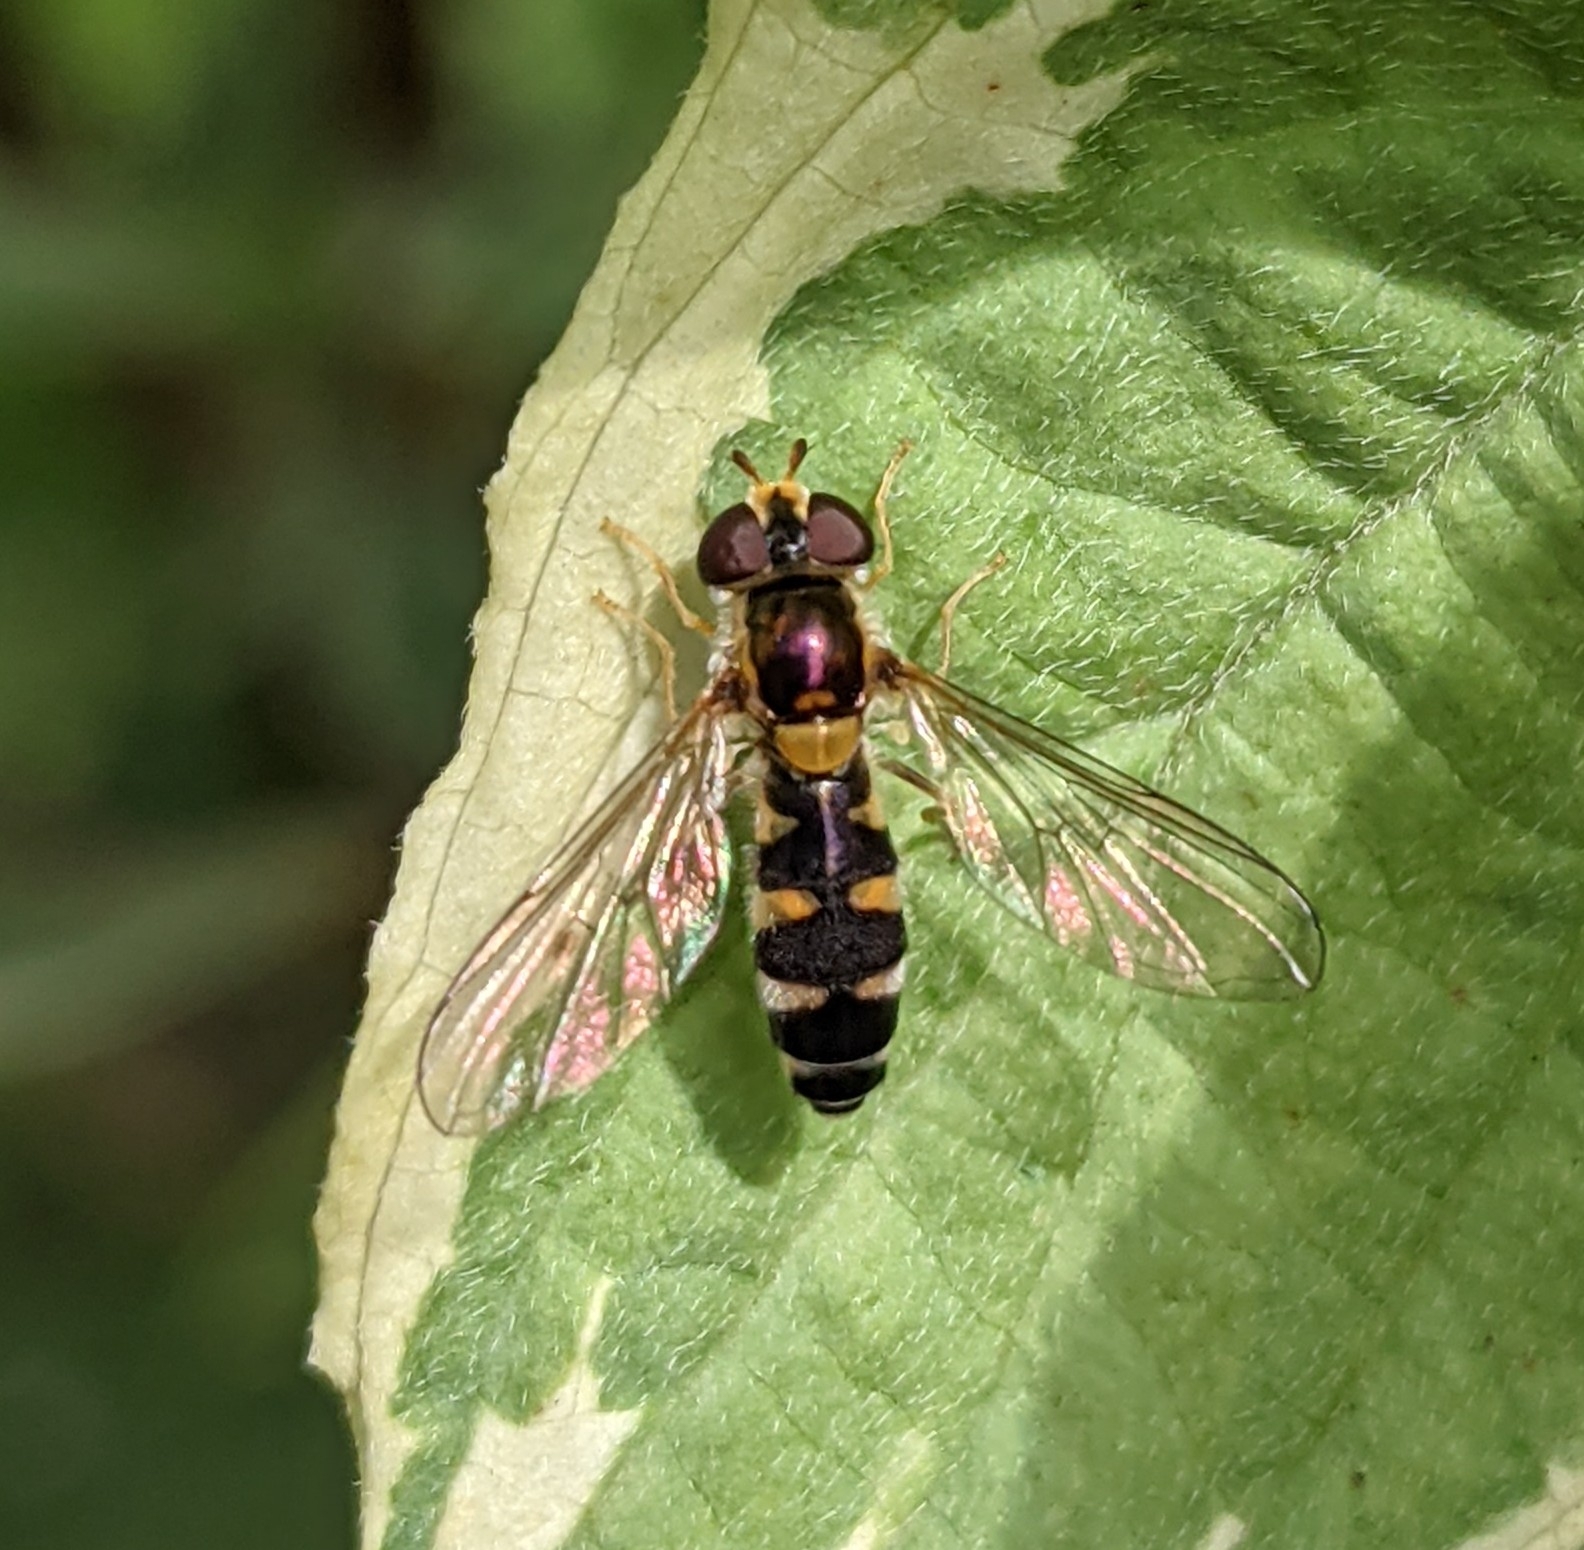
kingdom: Animalia
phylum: Arthropoda
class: Insecta
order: Diptera
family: Syrphidae
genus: Meligramma
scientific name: Meligramma triangulifera
